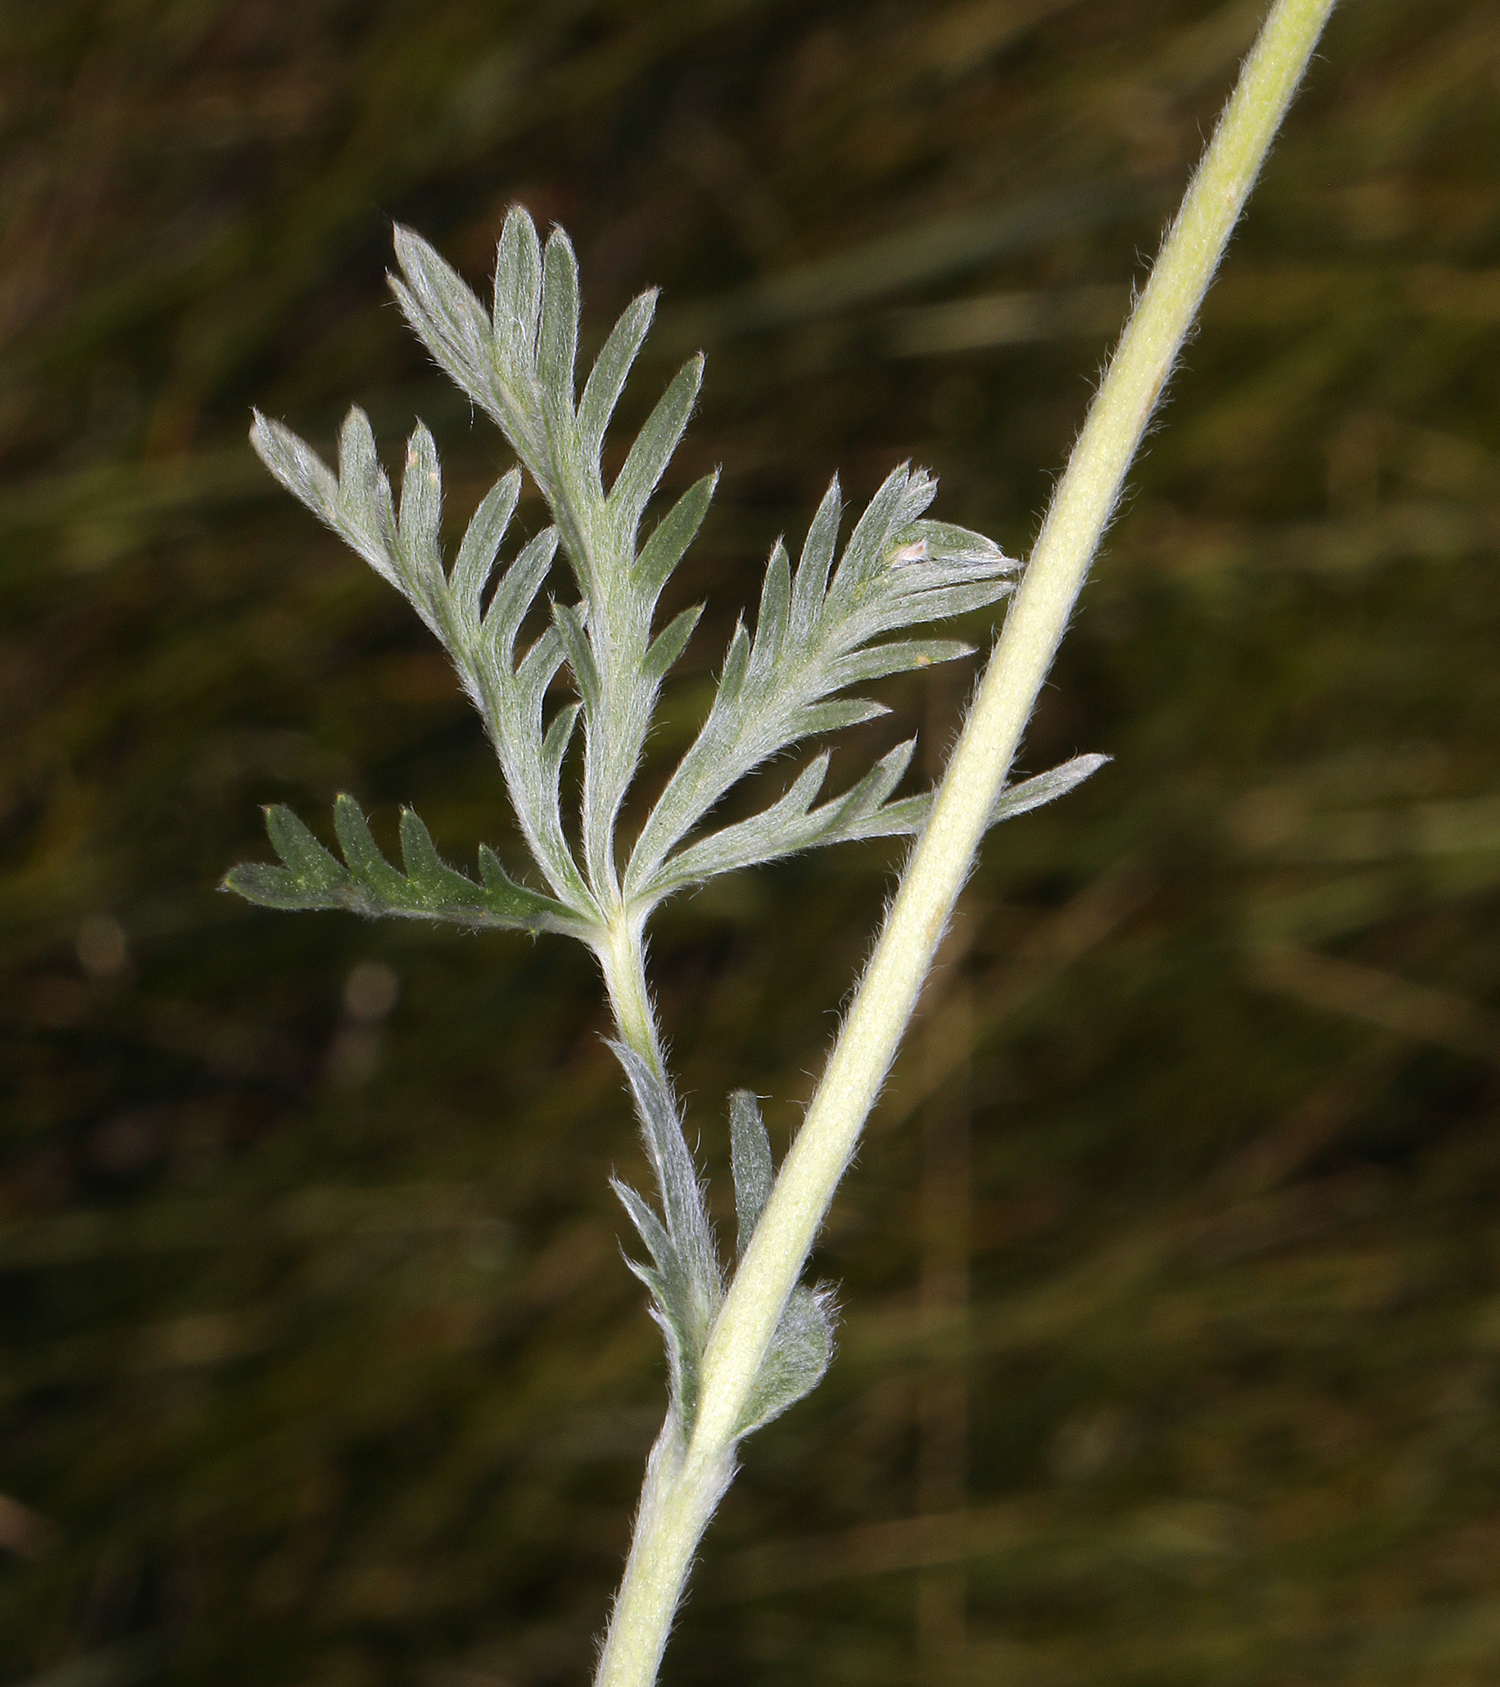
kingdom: Plantae
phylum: Tracheophyta
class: Magnoliopsida
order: Rosales
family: Rosaceae
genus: Potentilla
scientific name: Potentilla gracilis
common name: Graceful cinquefoil
